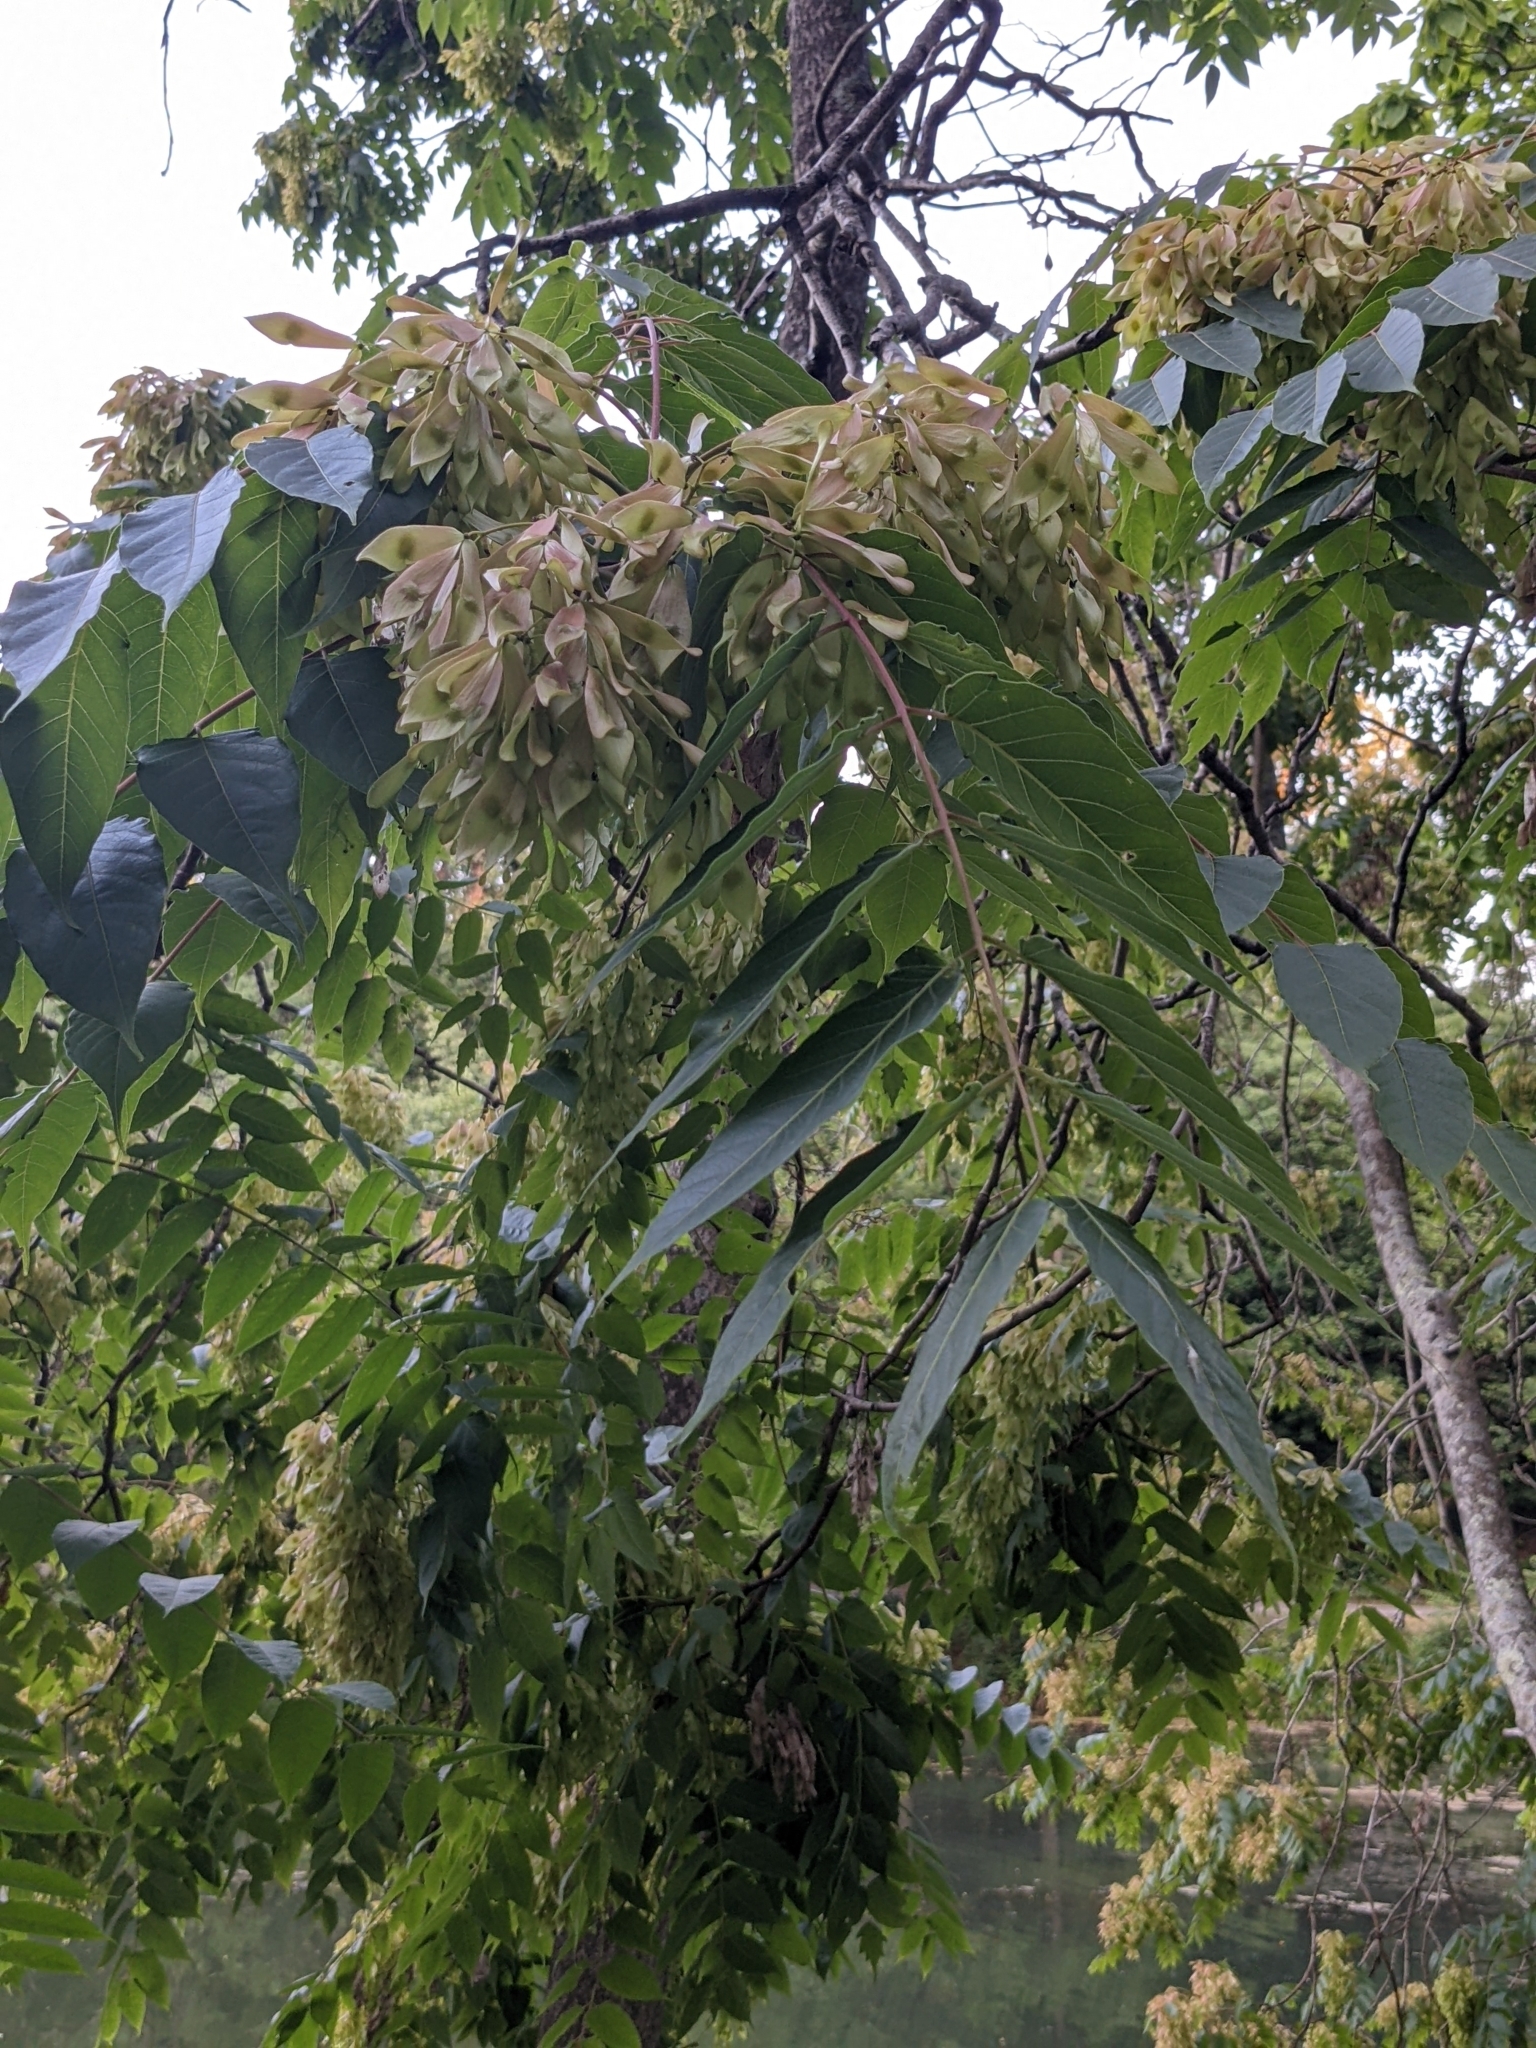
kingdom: Plantae
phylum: Tracheophyta
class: Magnoliopsida
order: Sapindales
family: Simaroubaceae
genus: Ailanthus
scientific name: Ailanthus altissima
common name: Tree-of-heaven
